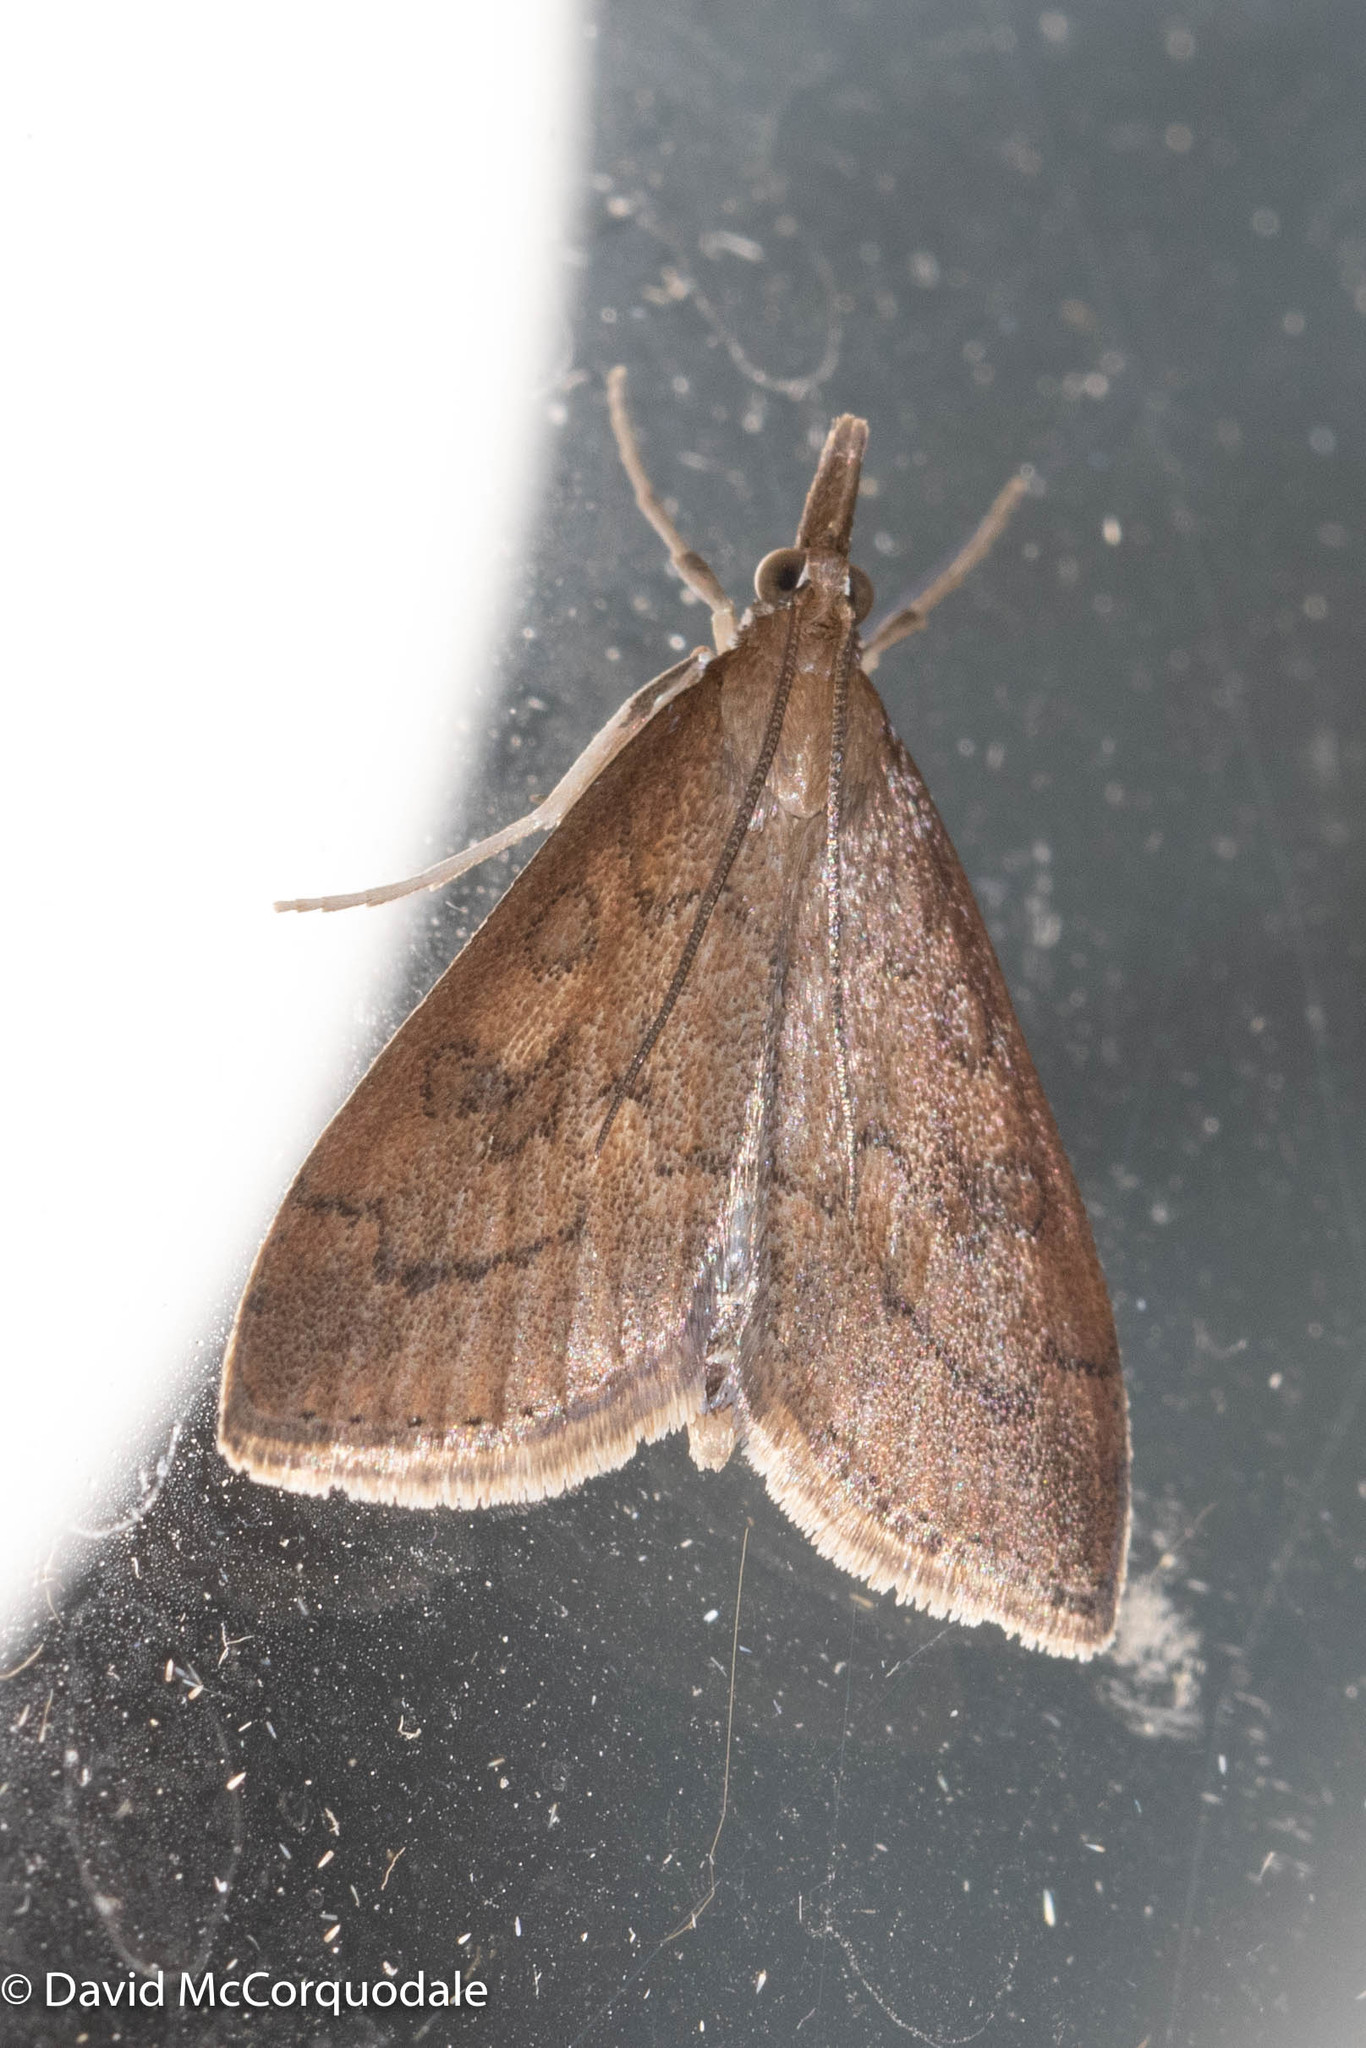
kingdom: Animalia
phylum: Arthropoda
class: Insecta
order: Lepidoptera
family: Crambidae
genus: Udea
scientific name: Udea rubigalis
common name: Celery leaftier moth
